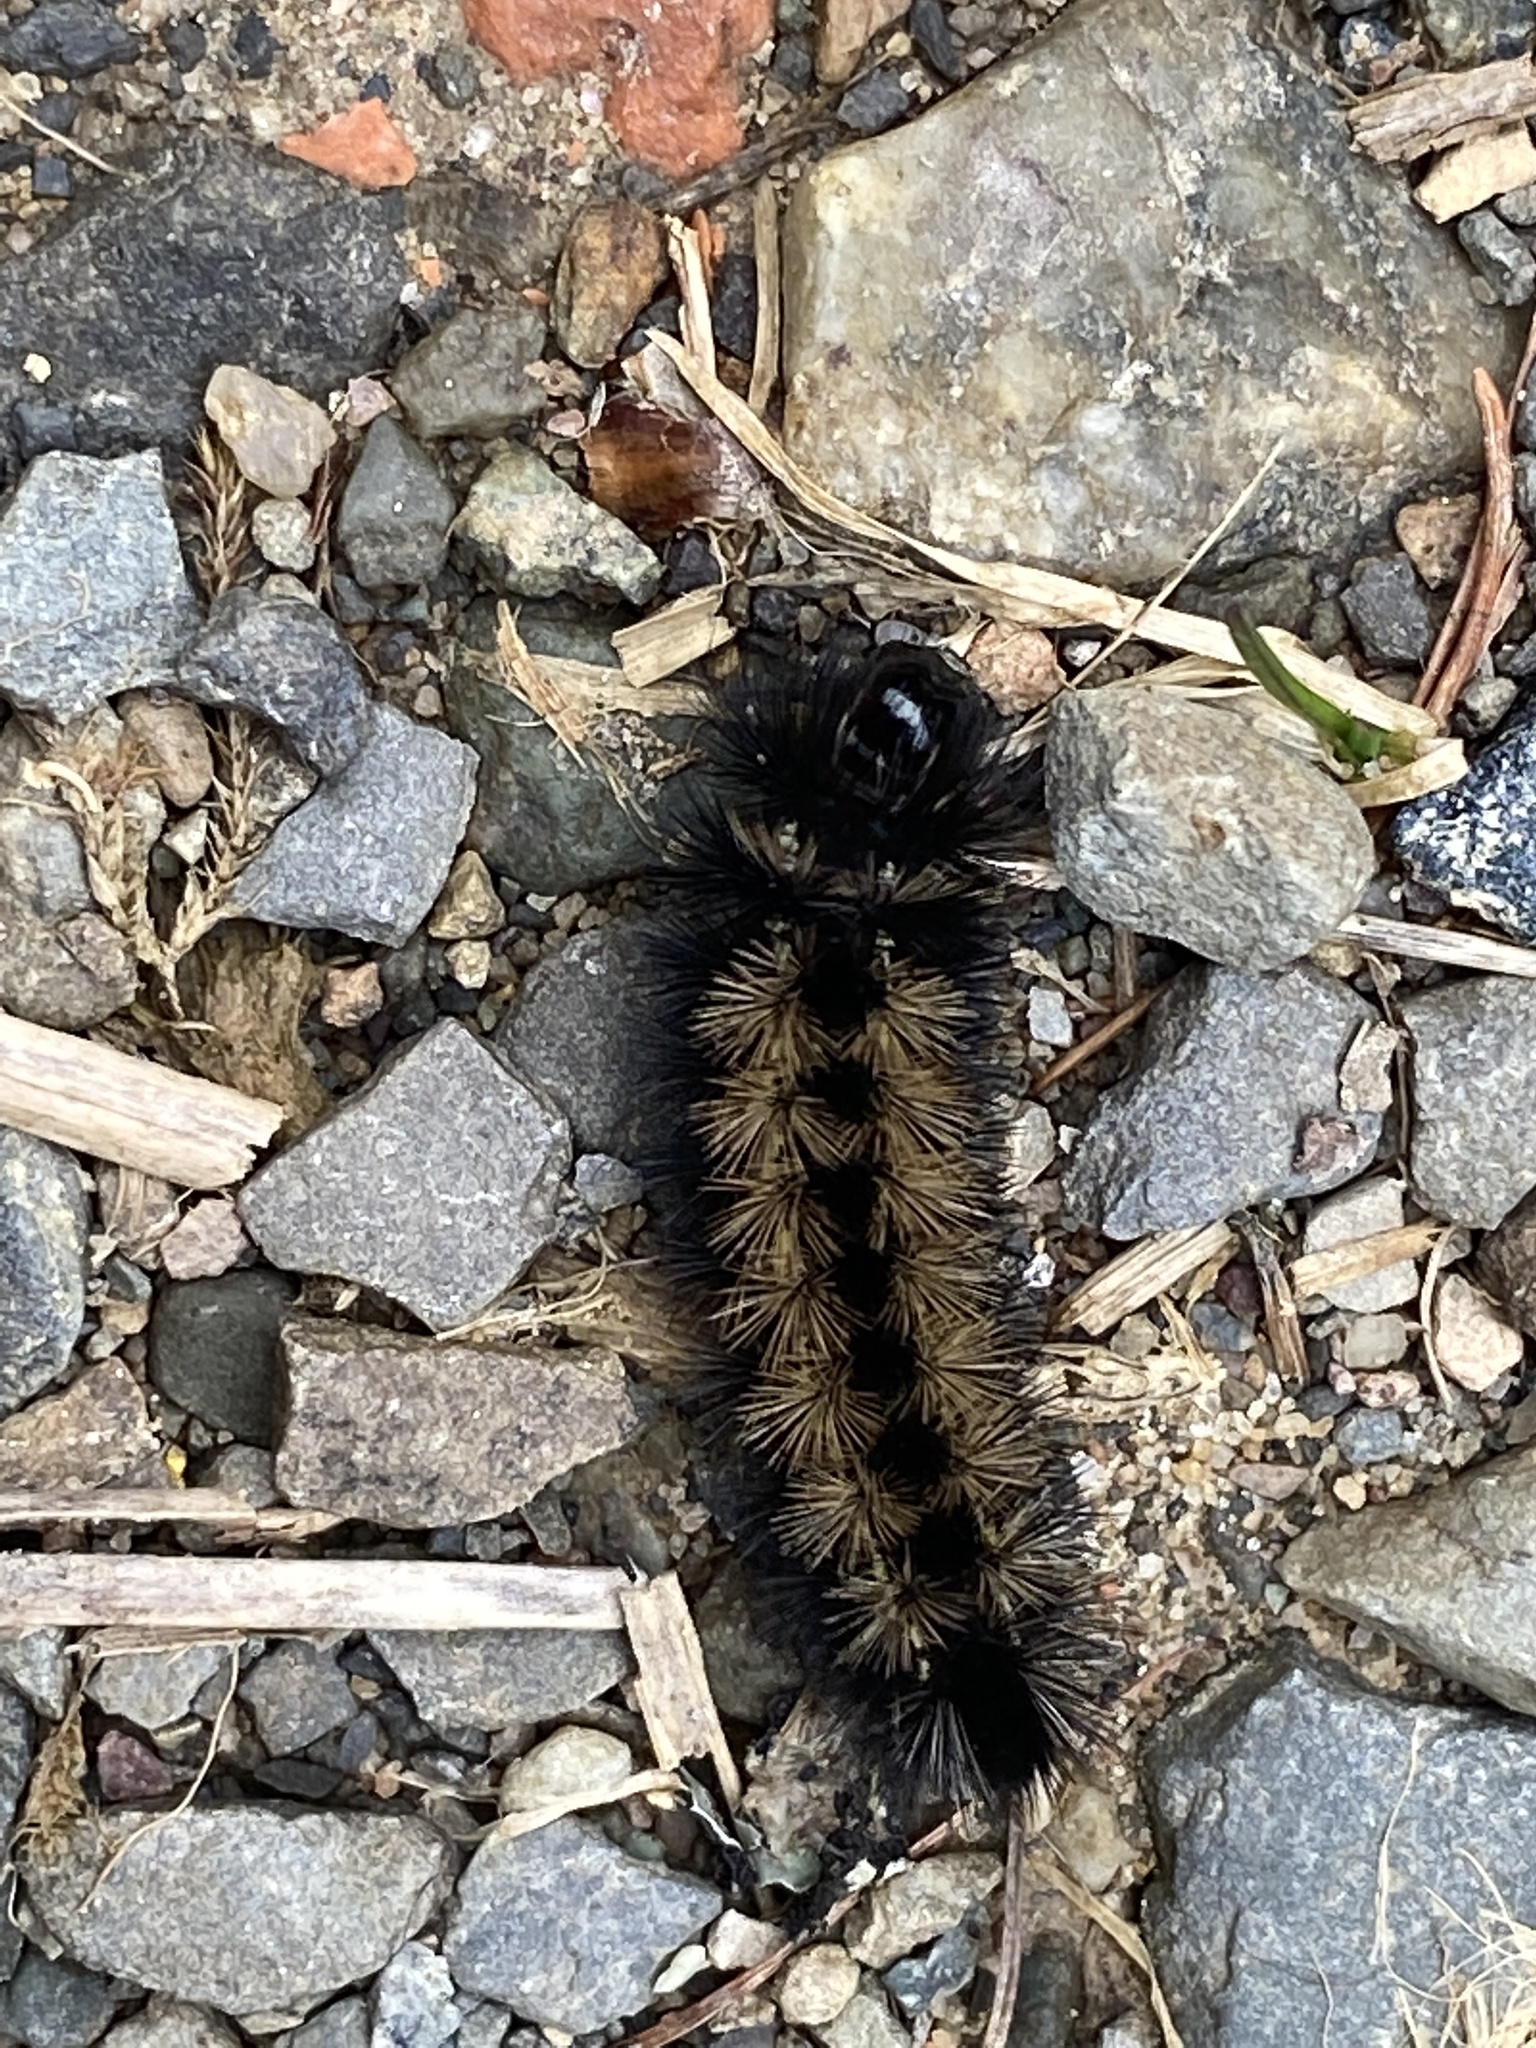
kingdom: Animalia
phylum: Arthropoda
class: Insecta
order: Lepidoptera
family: Erebidae
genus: Ctenucha
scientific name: Ctenucha virginica
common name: Virginia ctenucha moth
